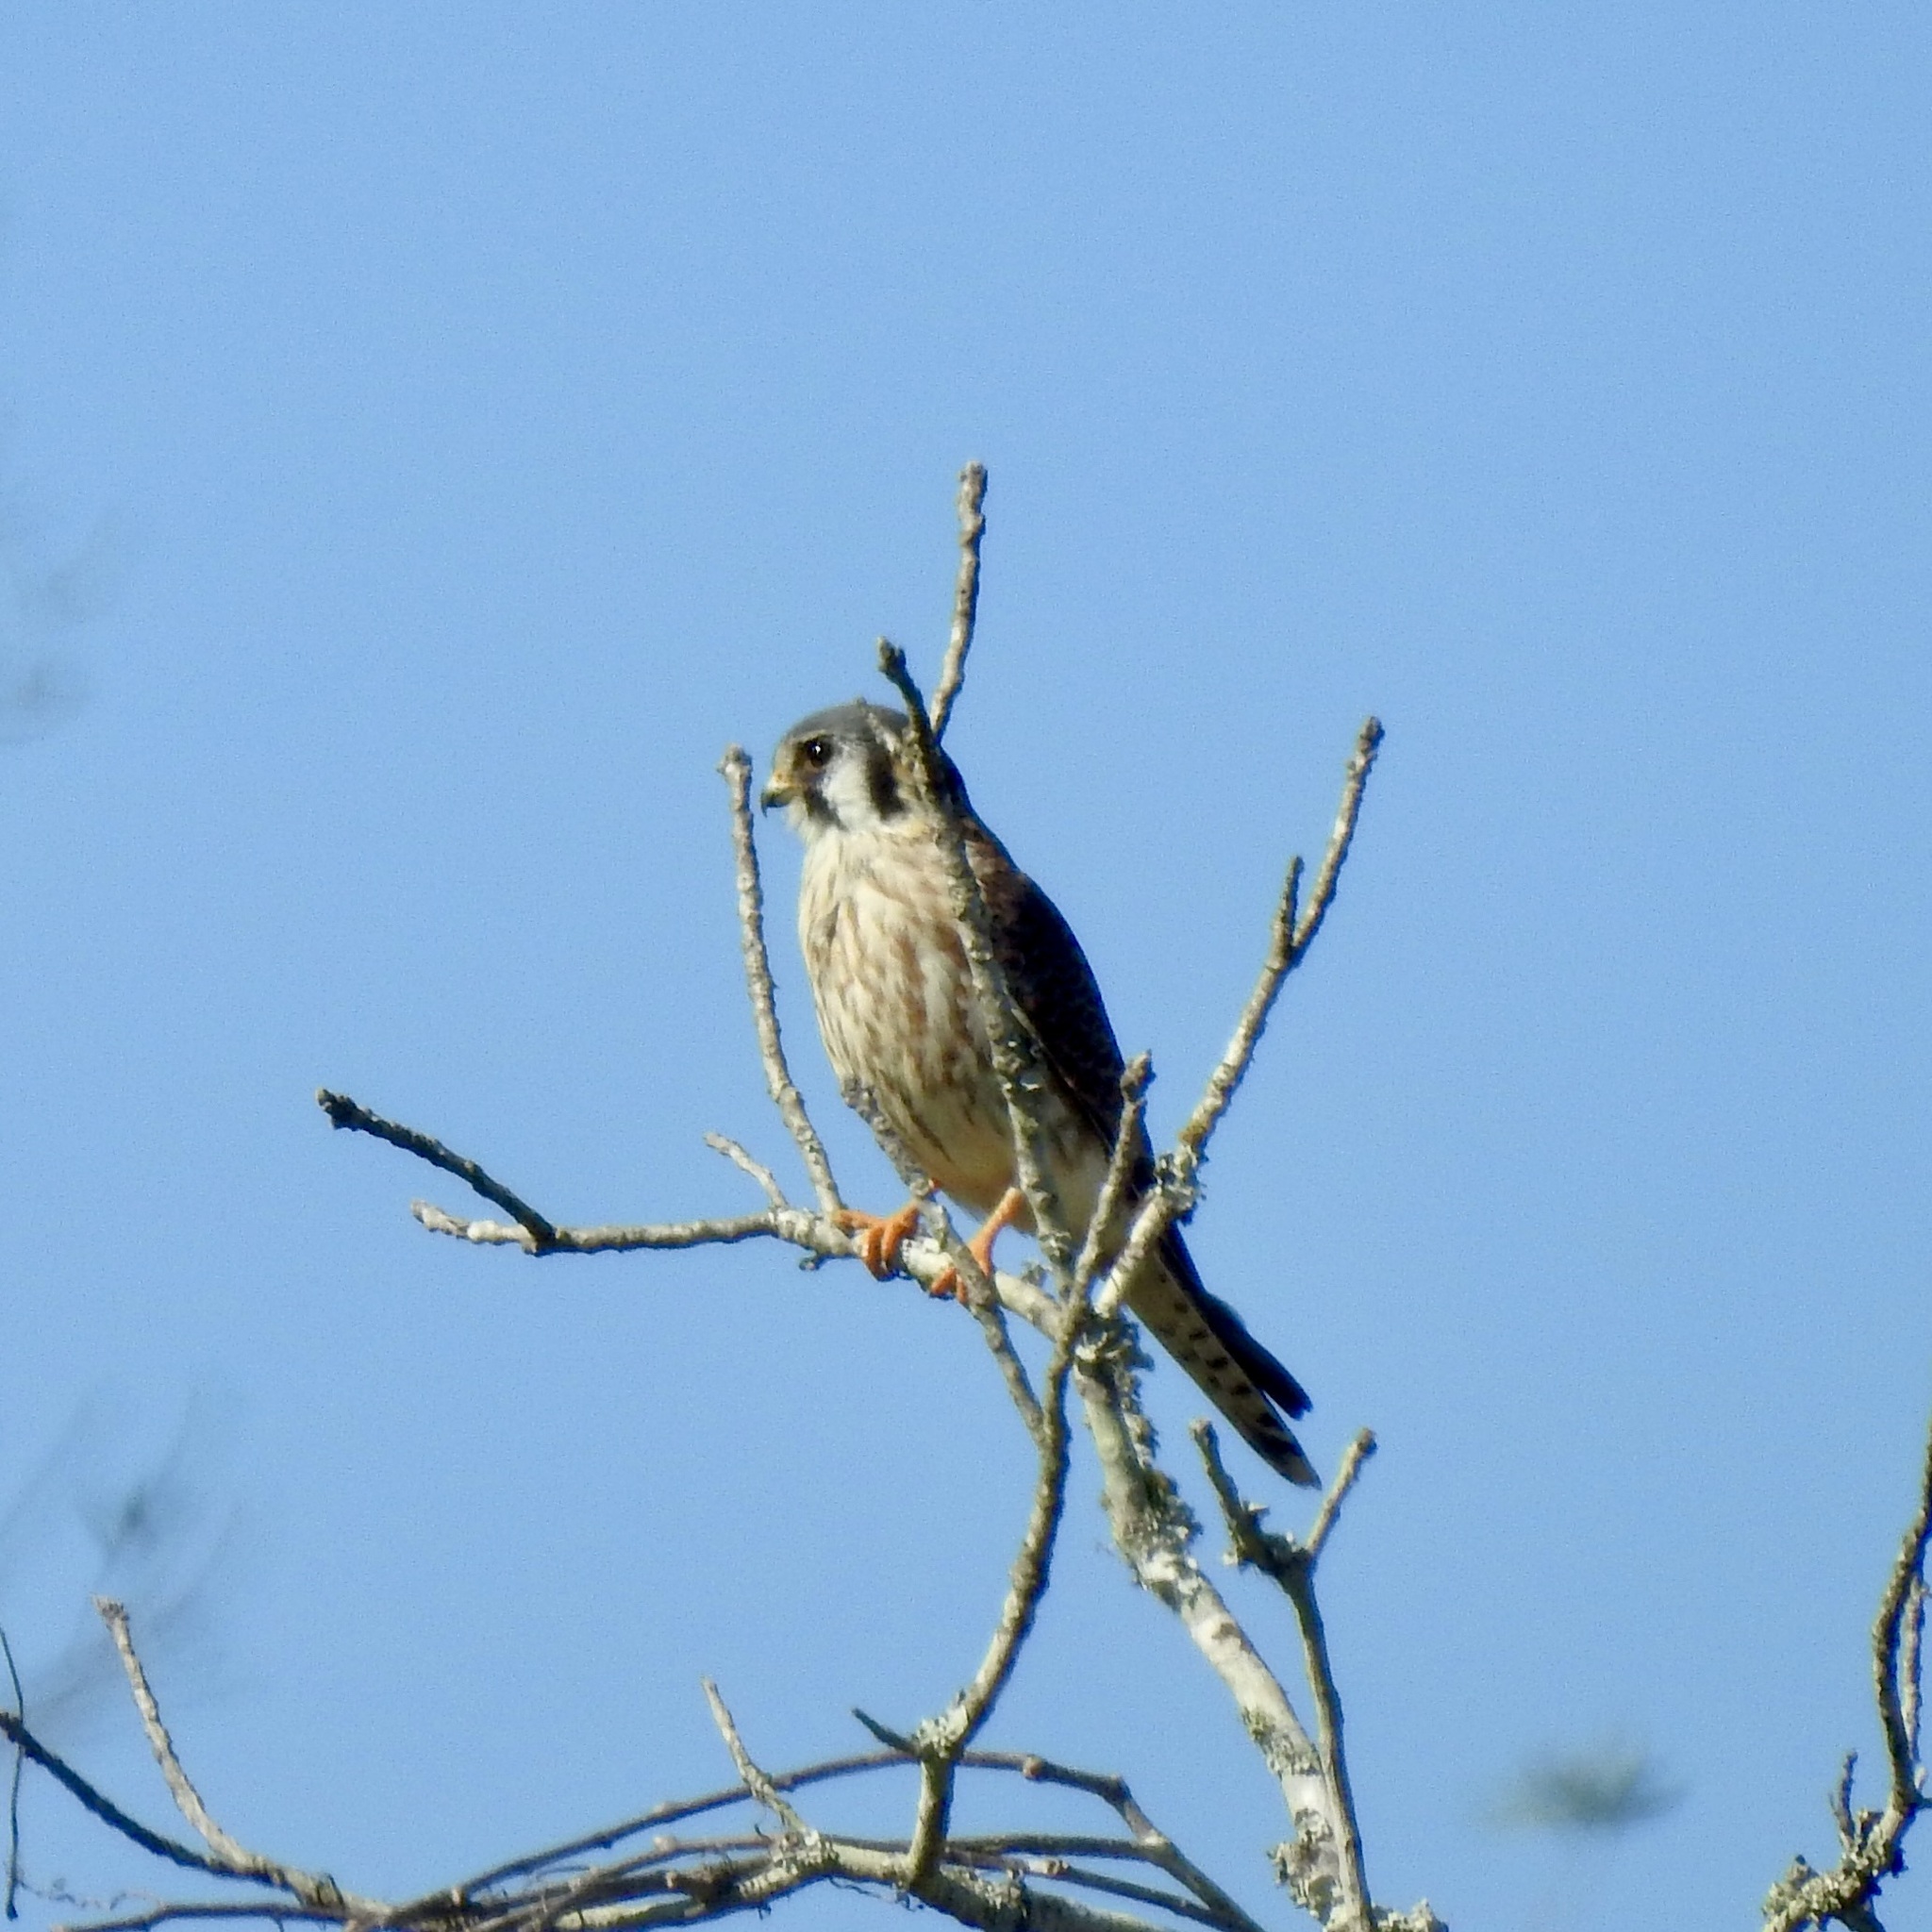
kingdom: Animalia
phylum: Chordata
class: Aves
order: Falconiformes
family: Falconidae
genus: Falco
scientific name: Falco sparverius
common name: American kestrel
